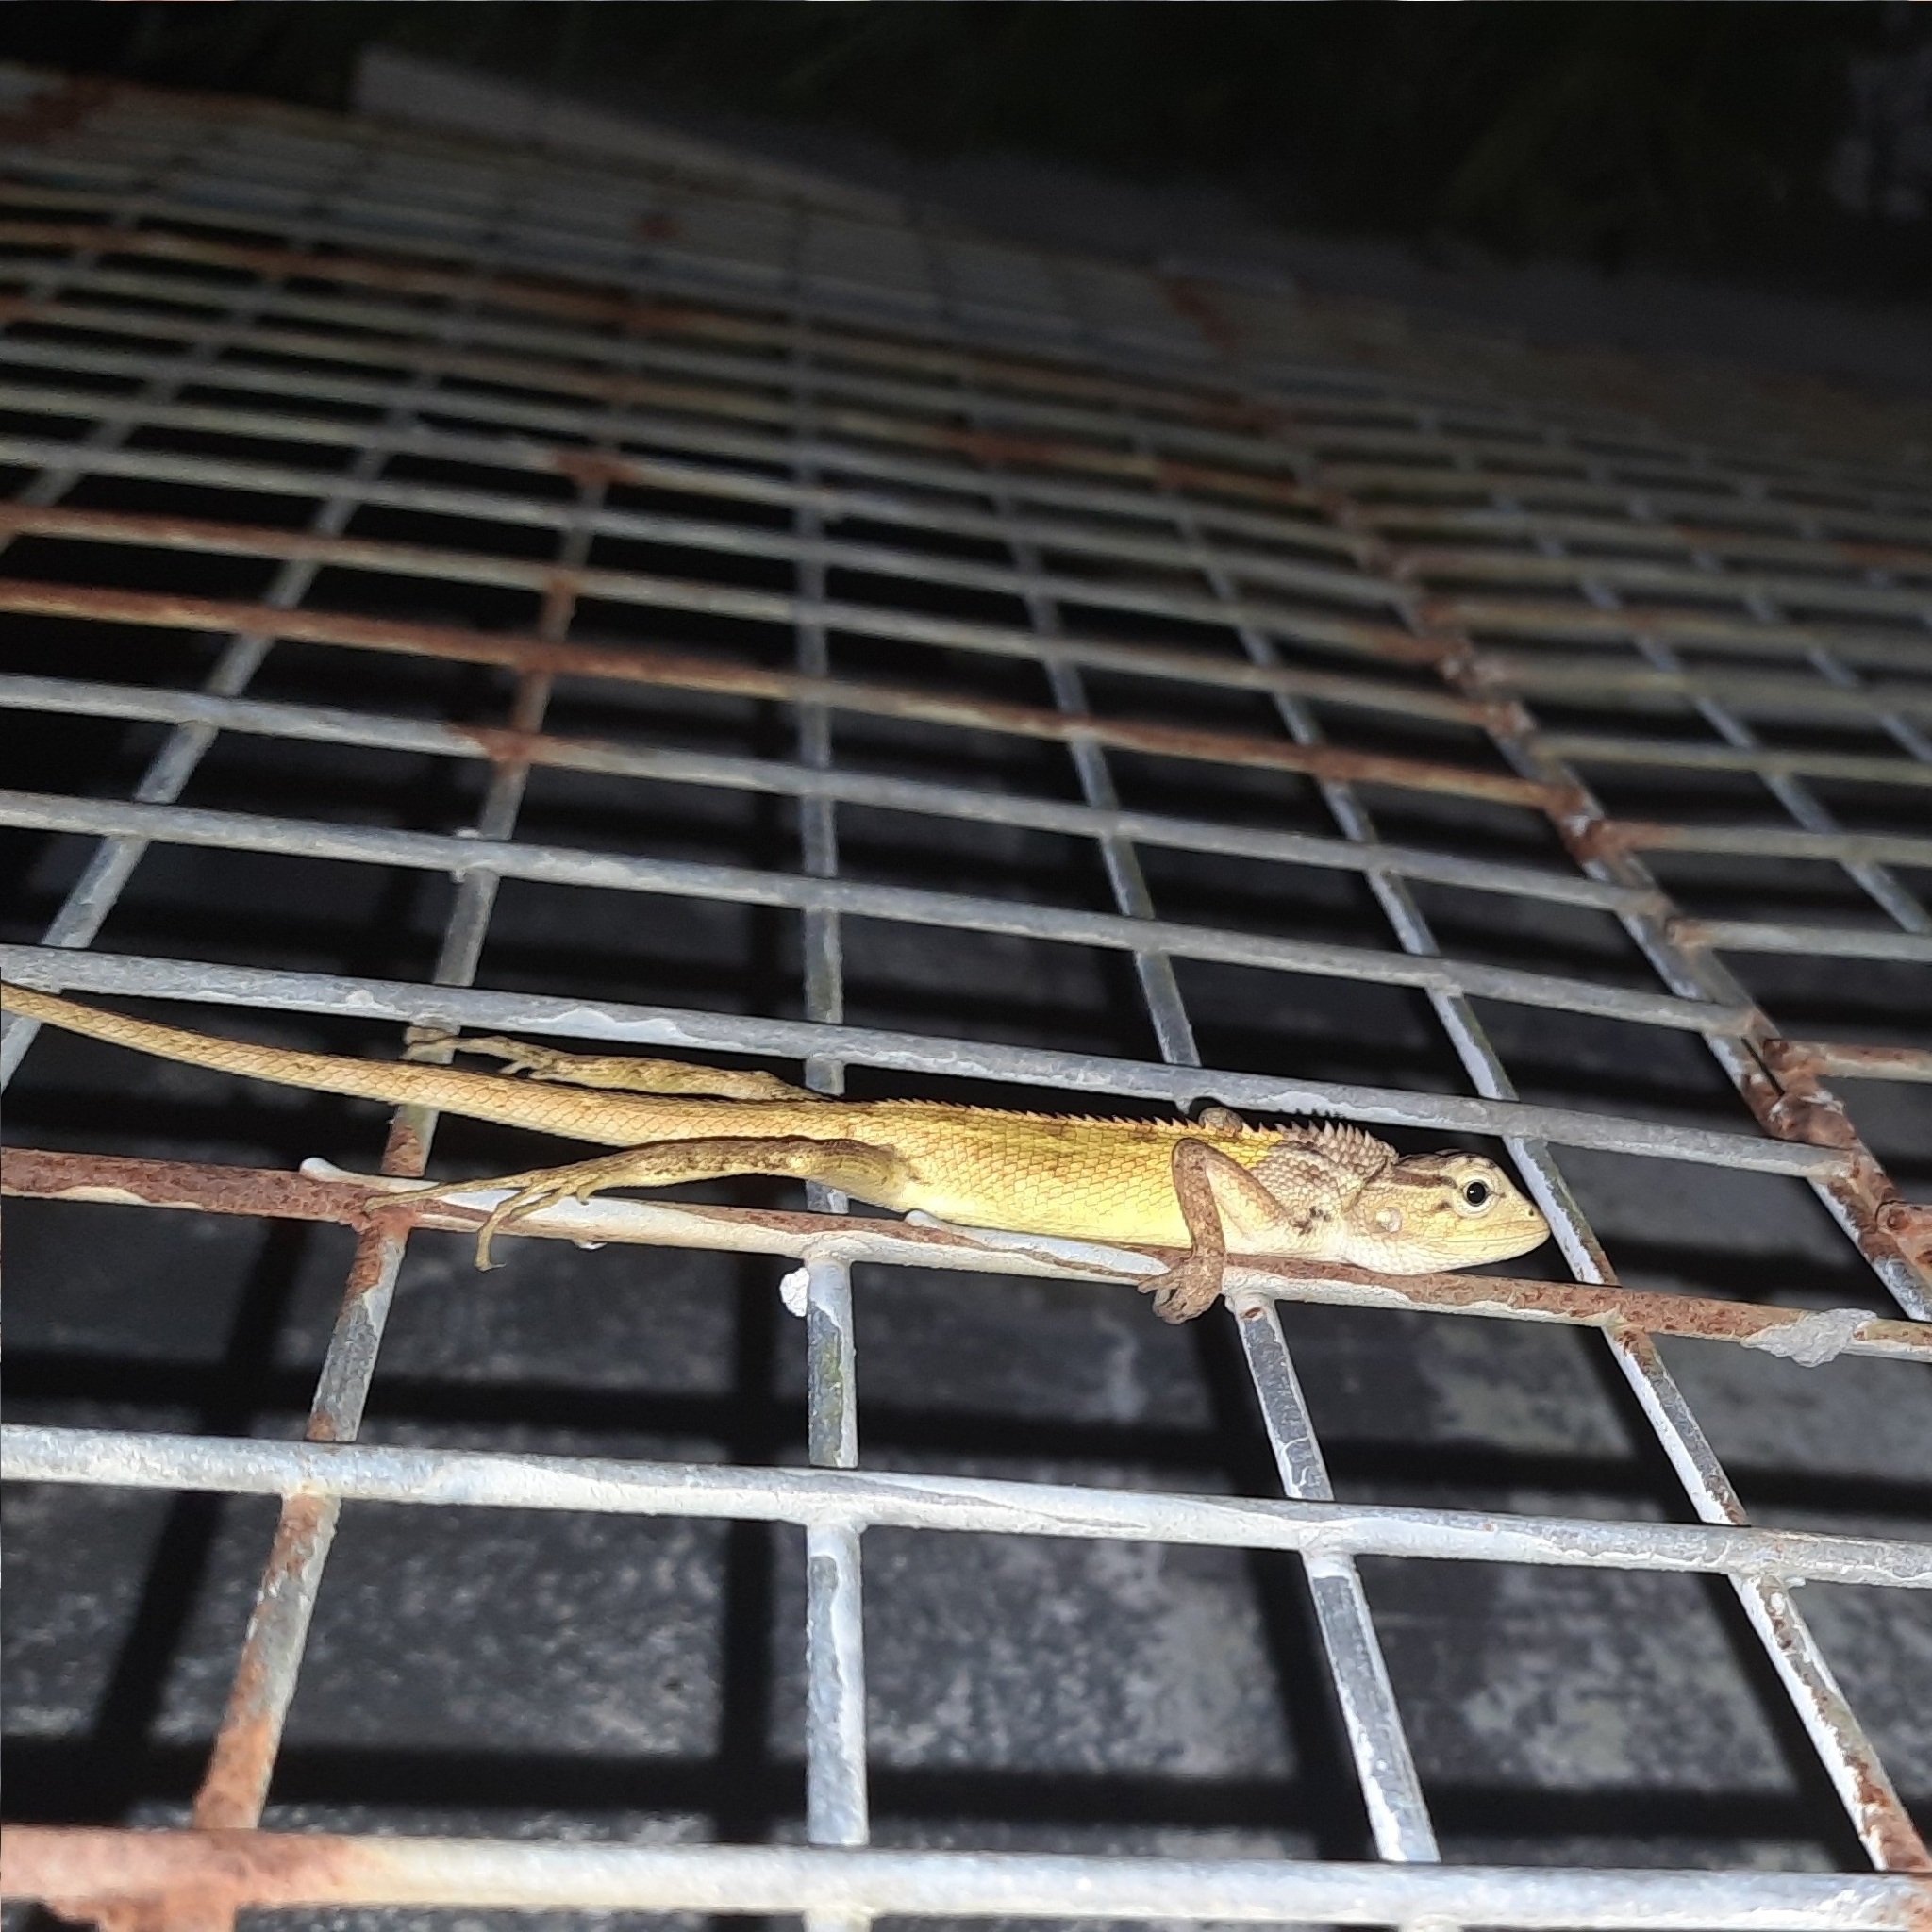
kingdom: Animalia
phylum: Chordata
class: Squamata
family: Agamidae
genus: Calotes
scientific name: Calotes versicolor
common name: Oriental garden lizard
